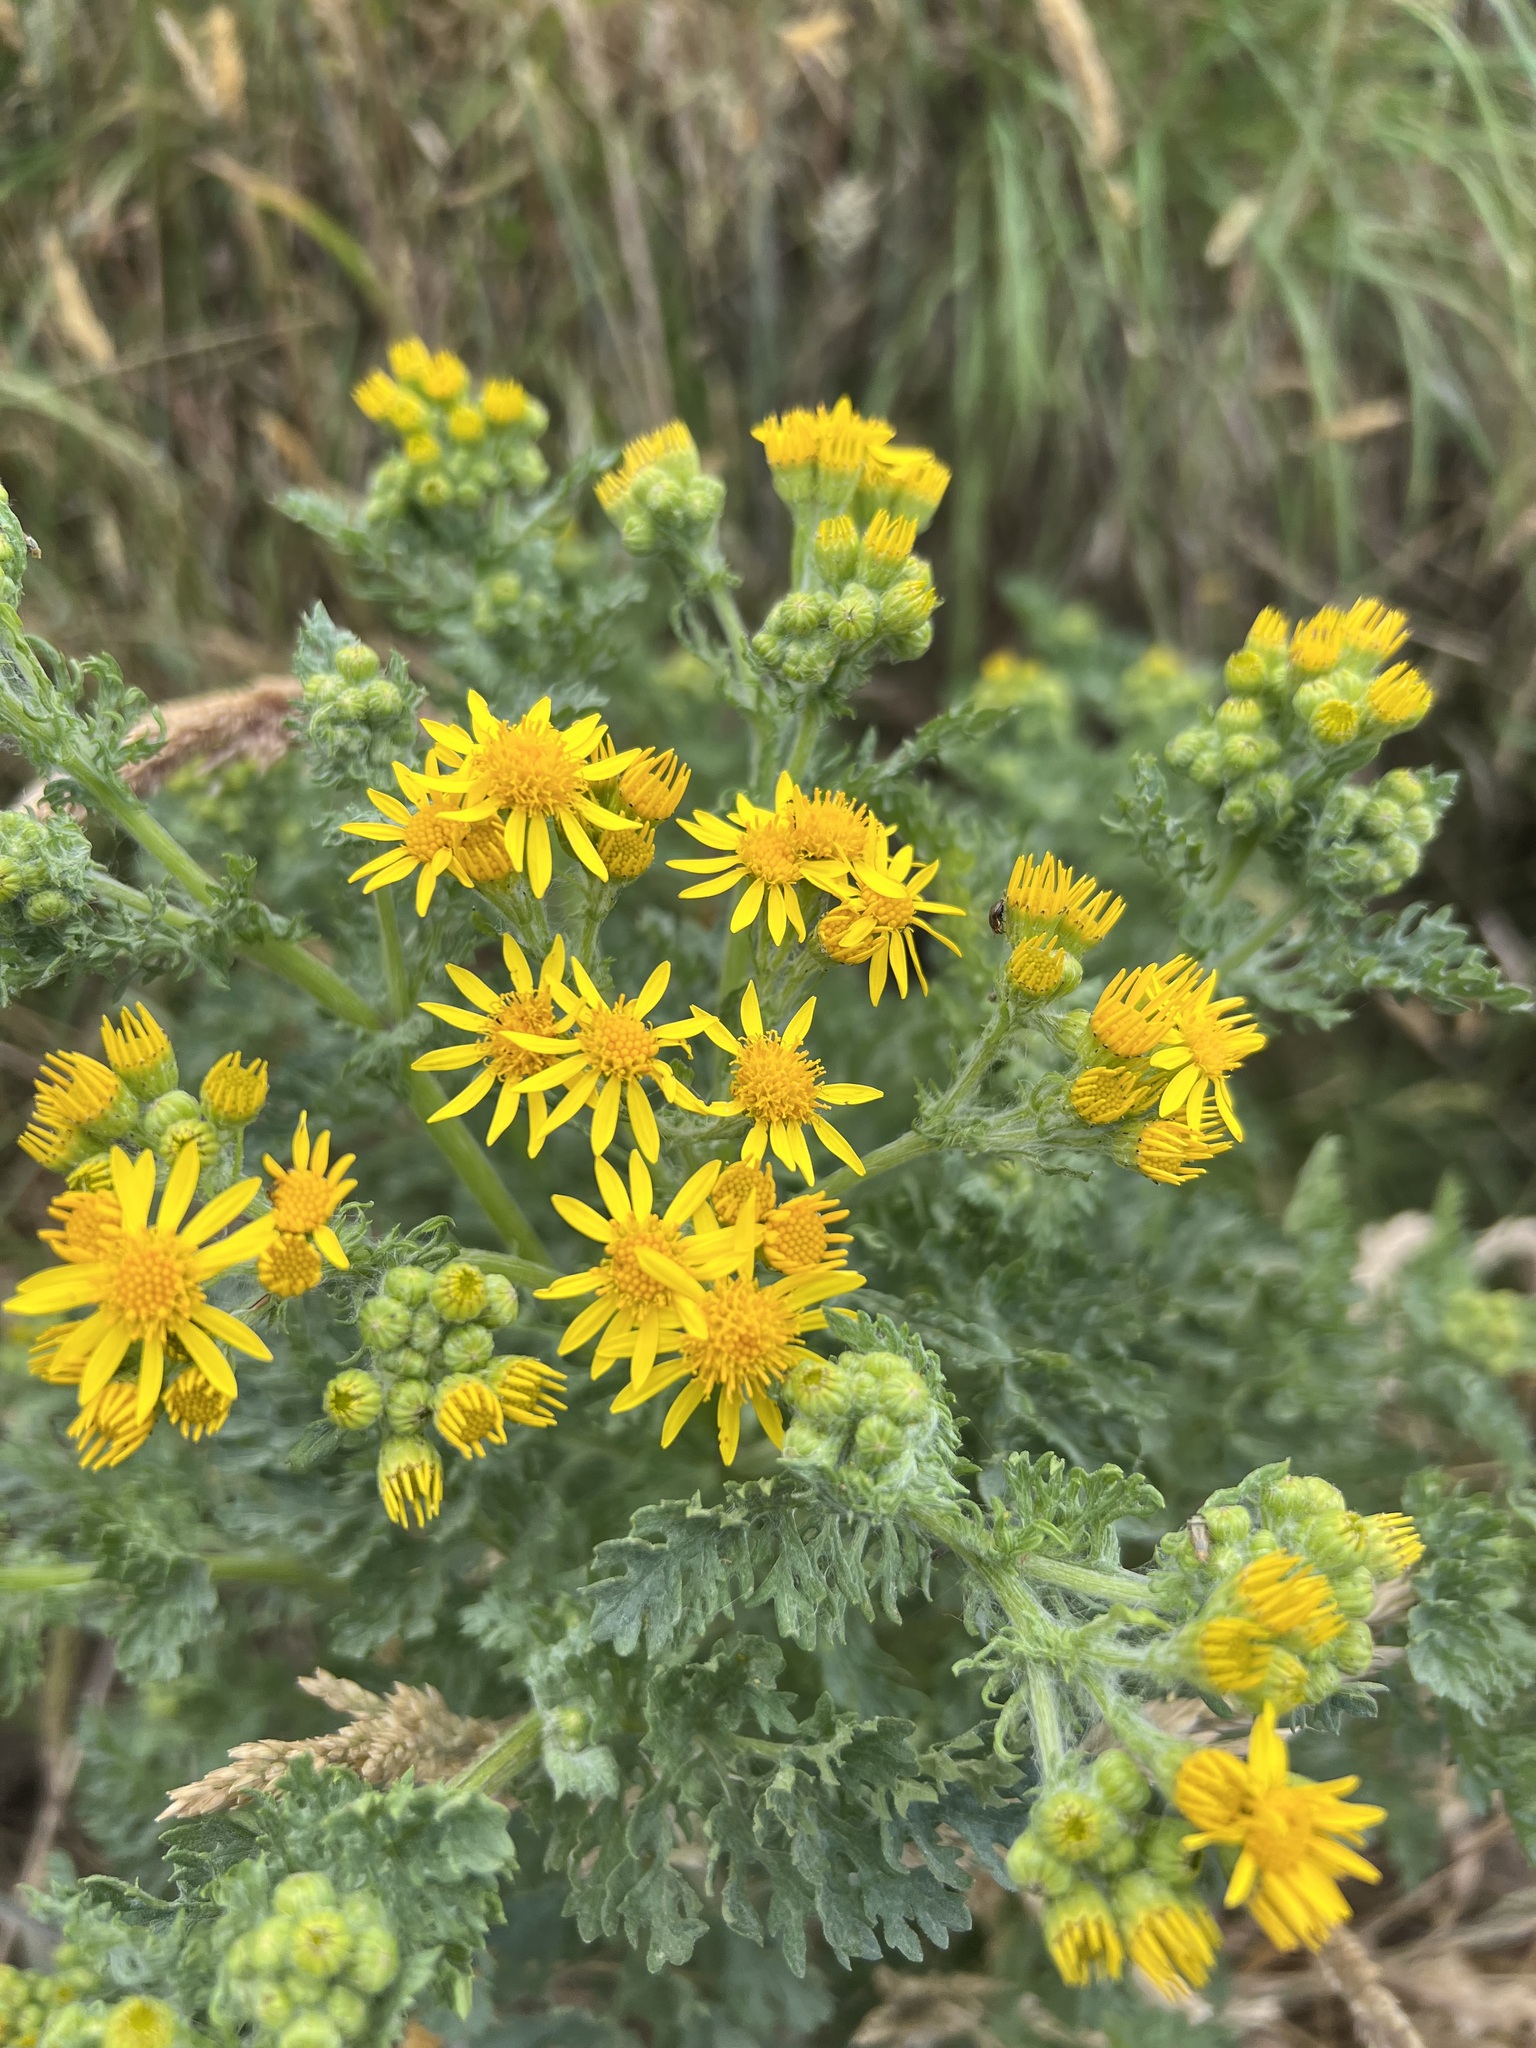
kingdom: Plantae
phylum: Tracheophyta
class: Magnoliopsida
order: Asterales
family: Asteraceae
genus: Jacobaea
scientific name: Jacobaea vulgaris
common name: Stinking willie
